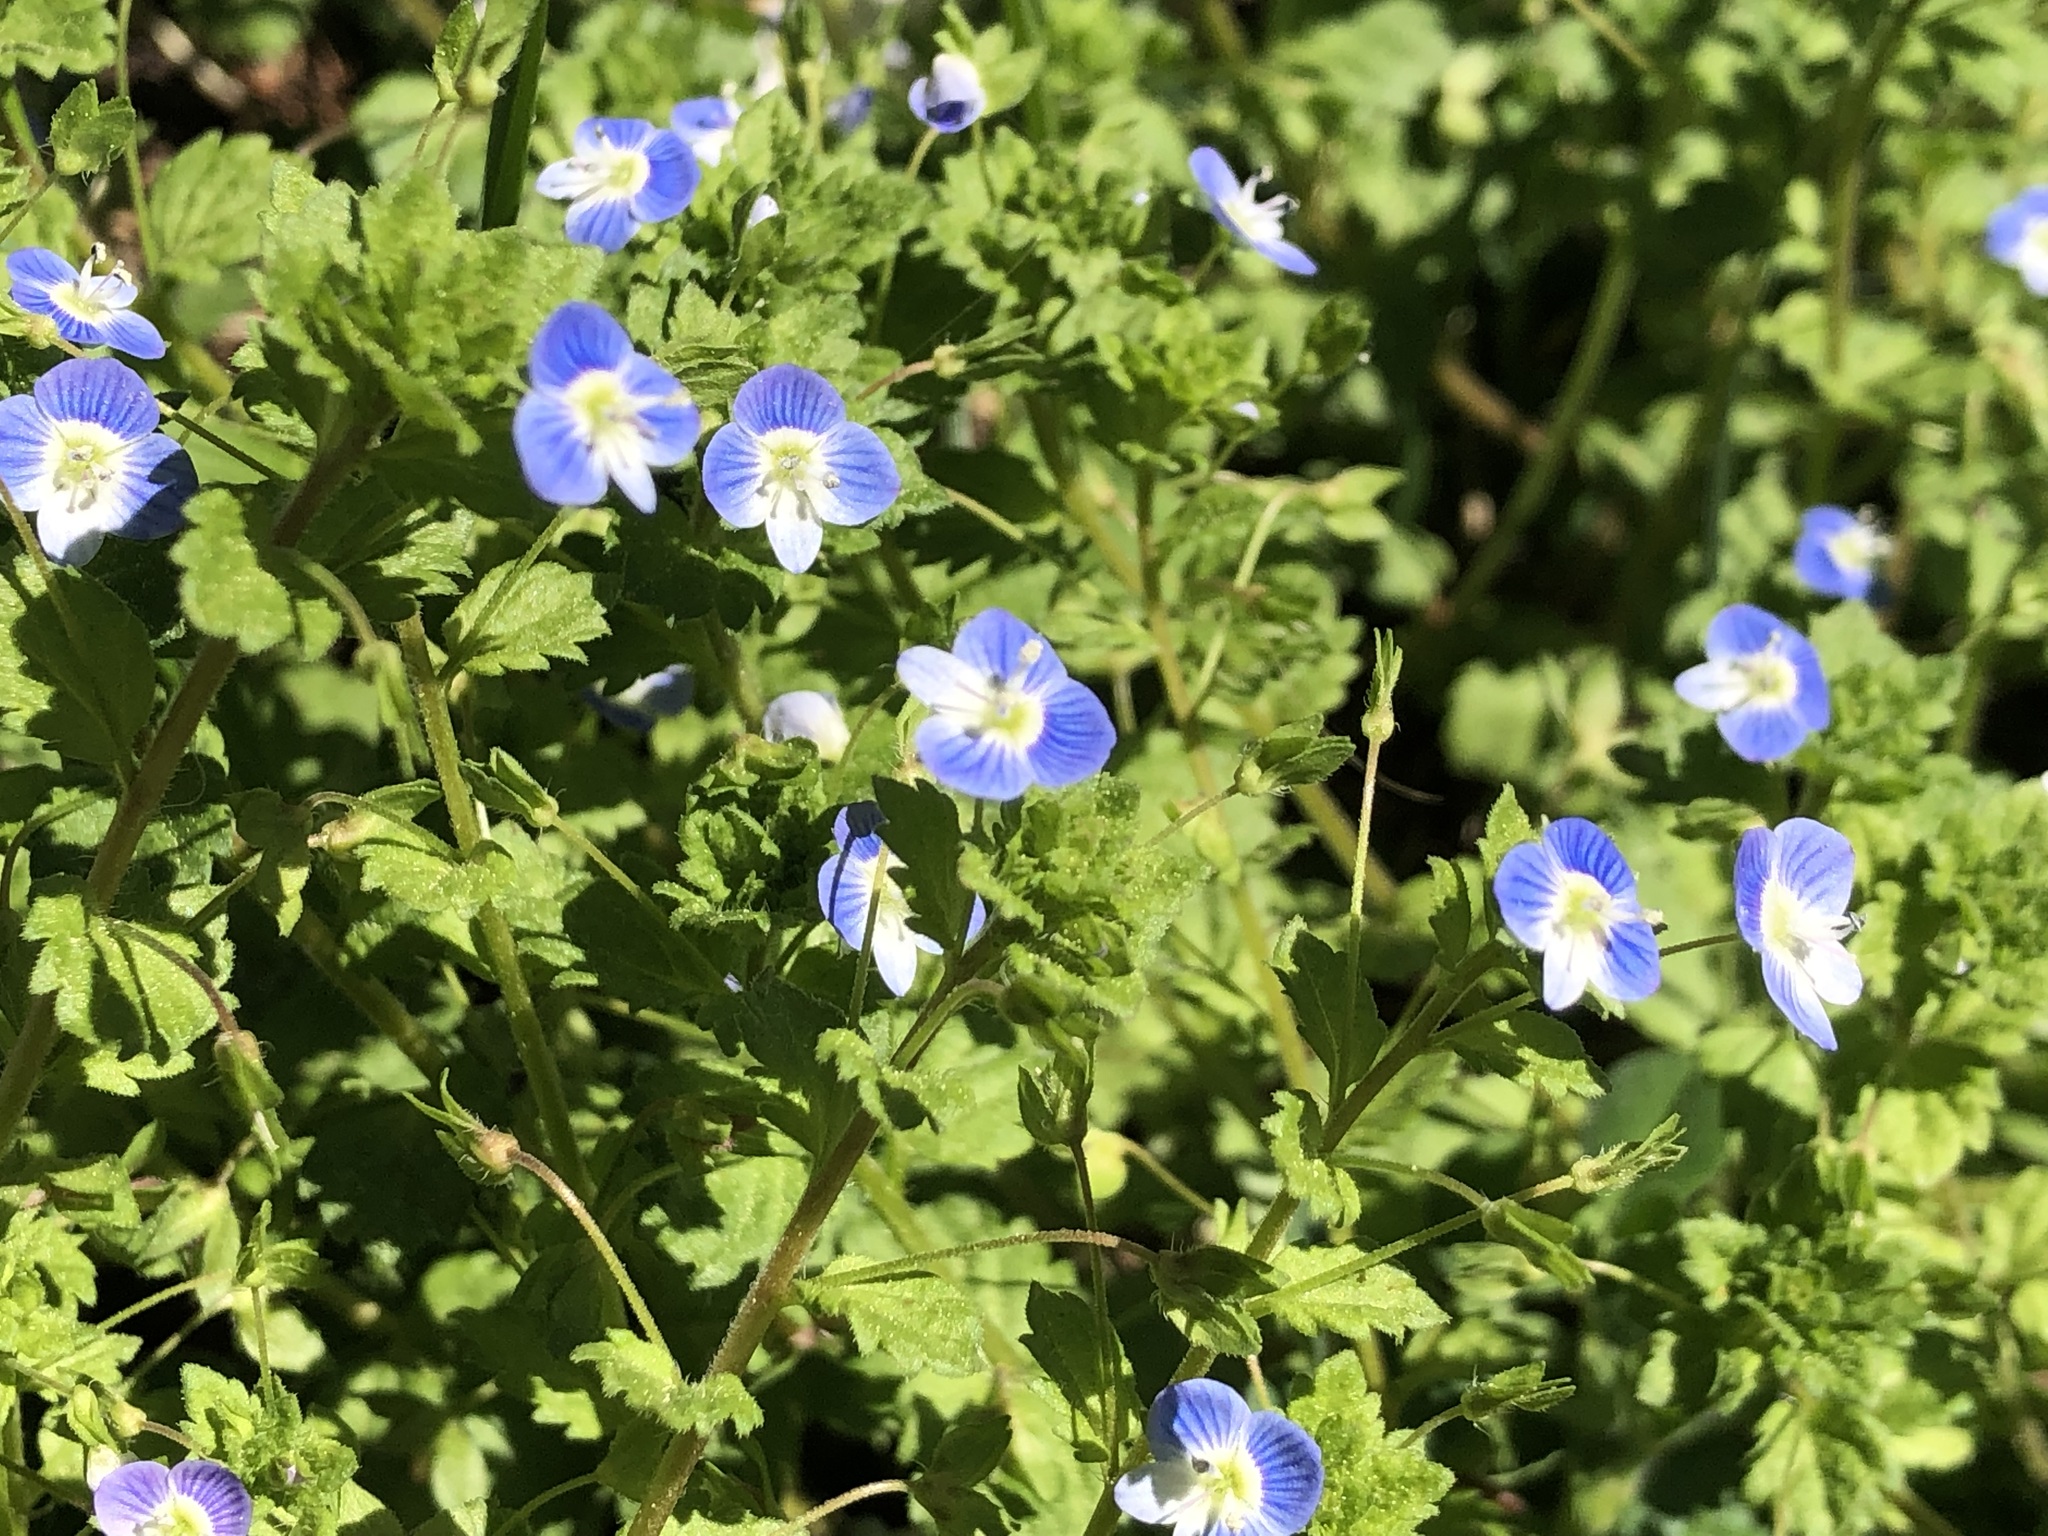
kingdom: Plantae
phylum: Tracheophyta
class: Magnoliopsida
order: Lamiales
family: Plantaginaceae
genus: Veronica
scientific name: Veronica persica
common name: Common field-speedwell
